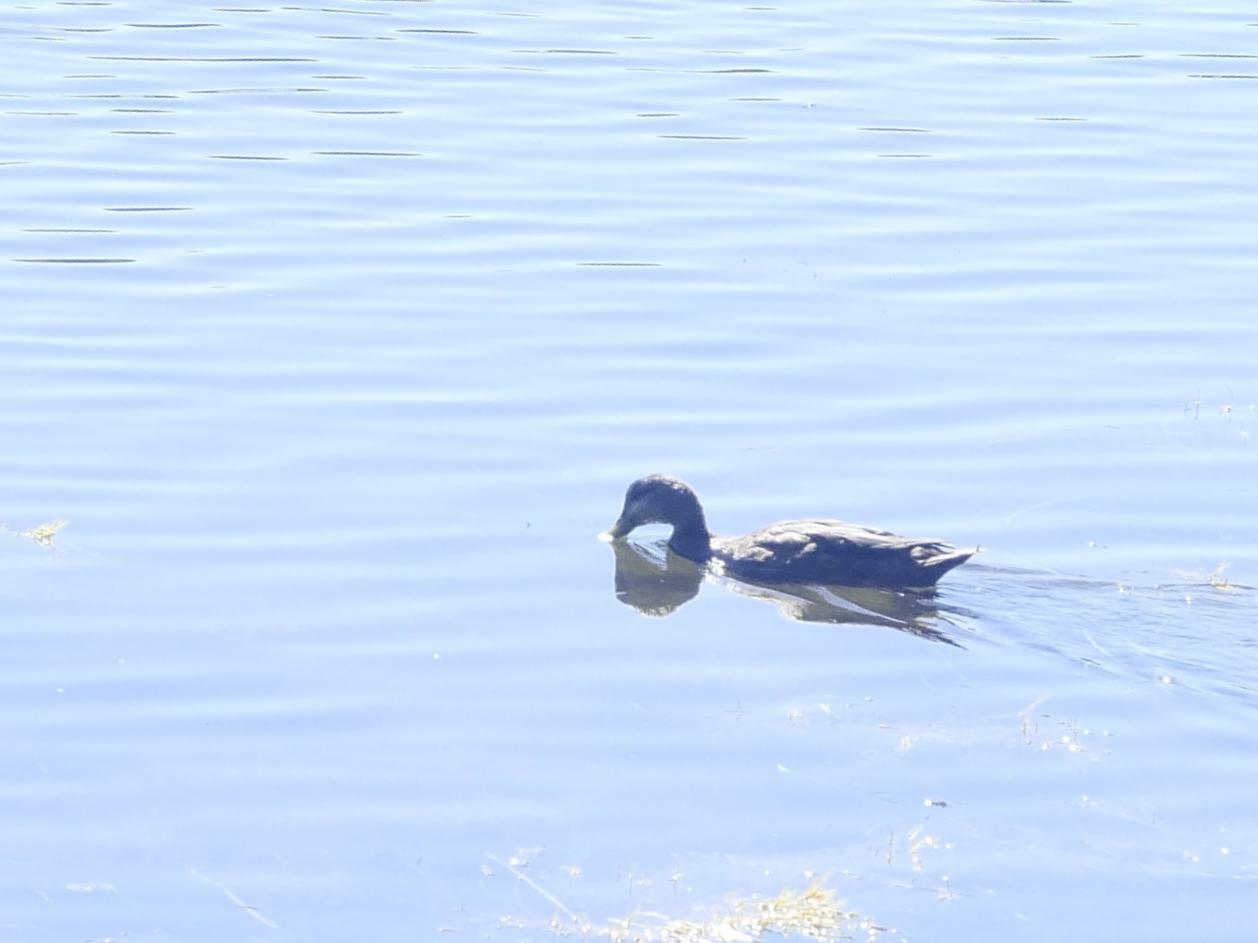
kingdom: Animalia
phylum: Chordata
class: Aves
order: Anseriformes
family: Anatidae
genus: Anas
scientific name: Anas rubripes
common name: American black duck
